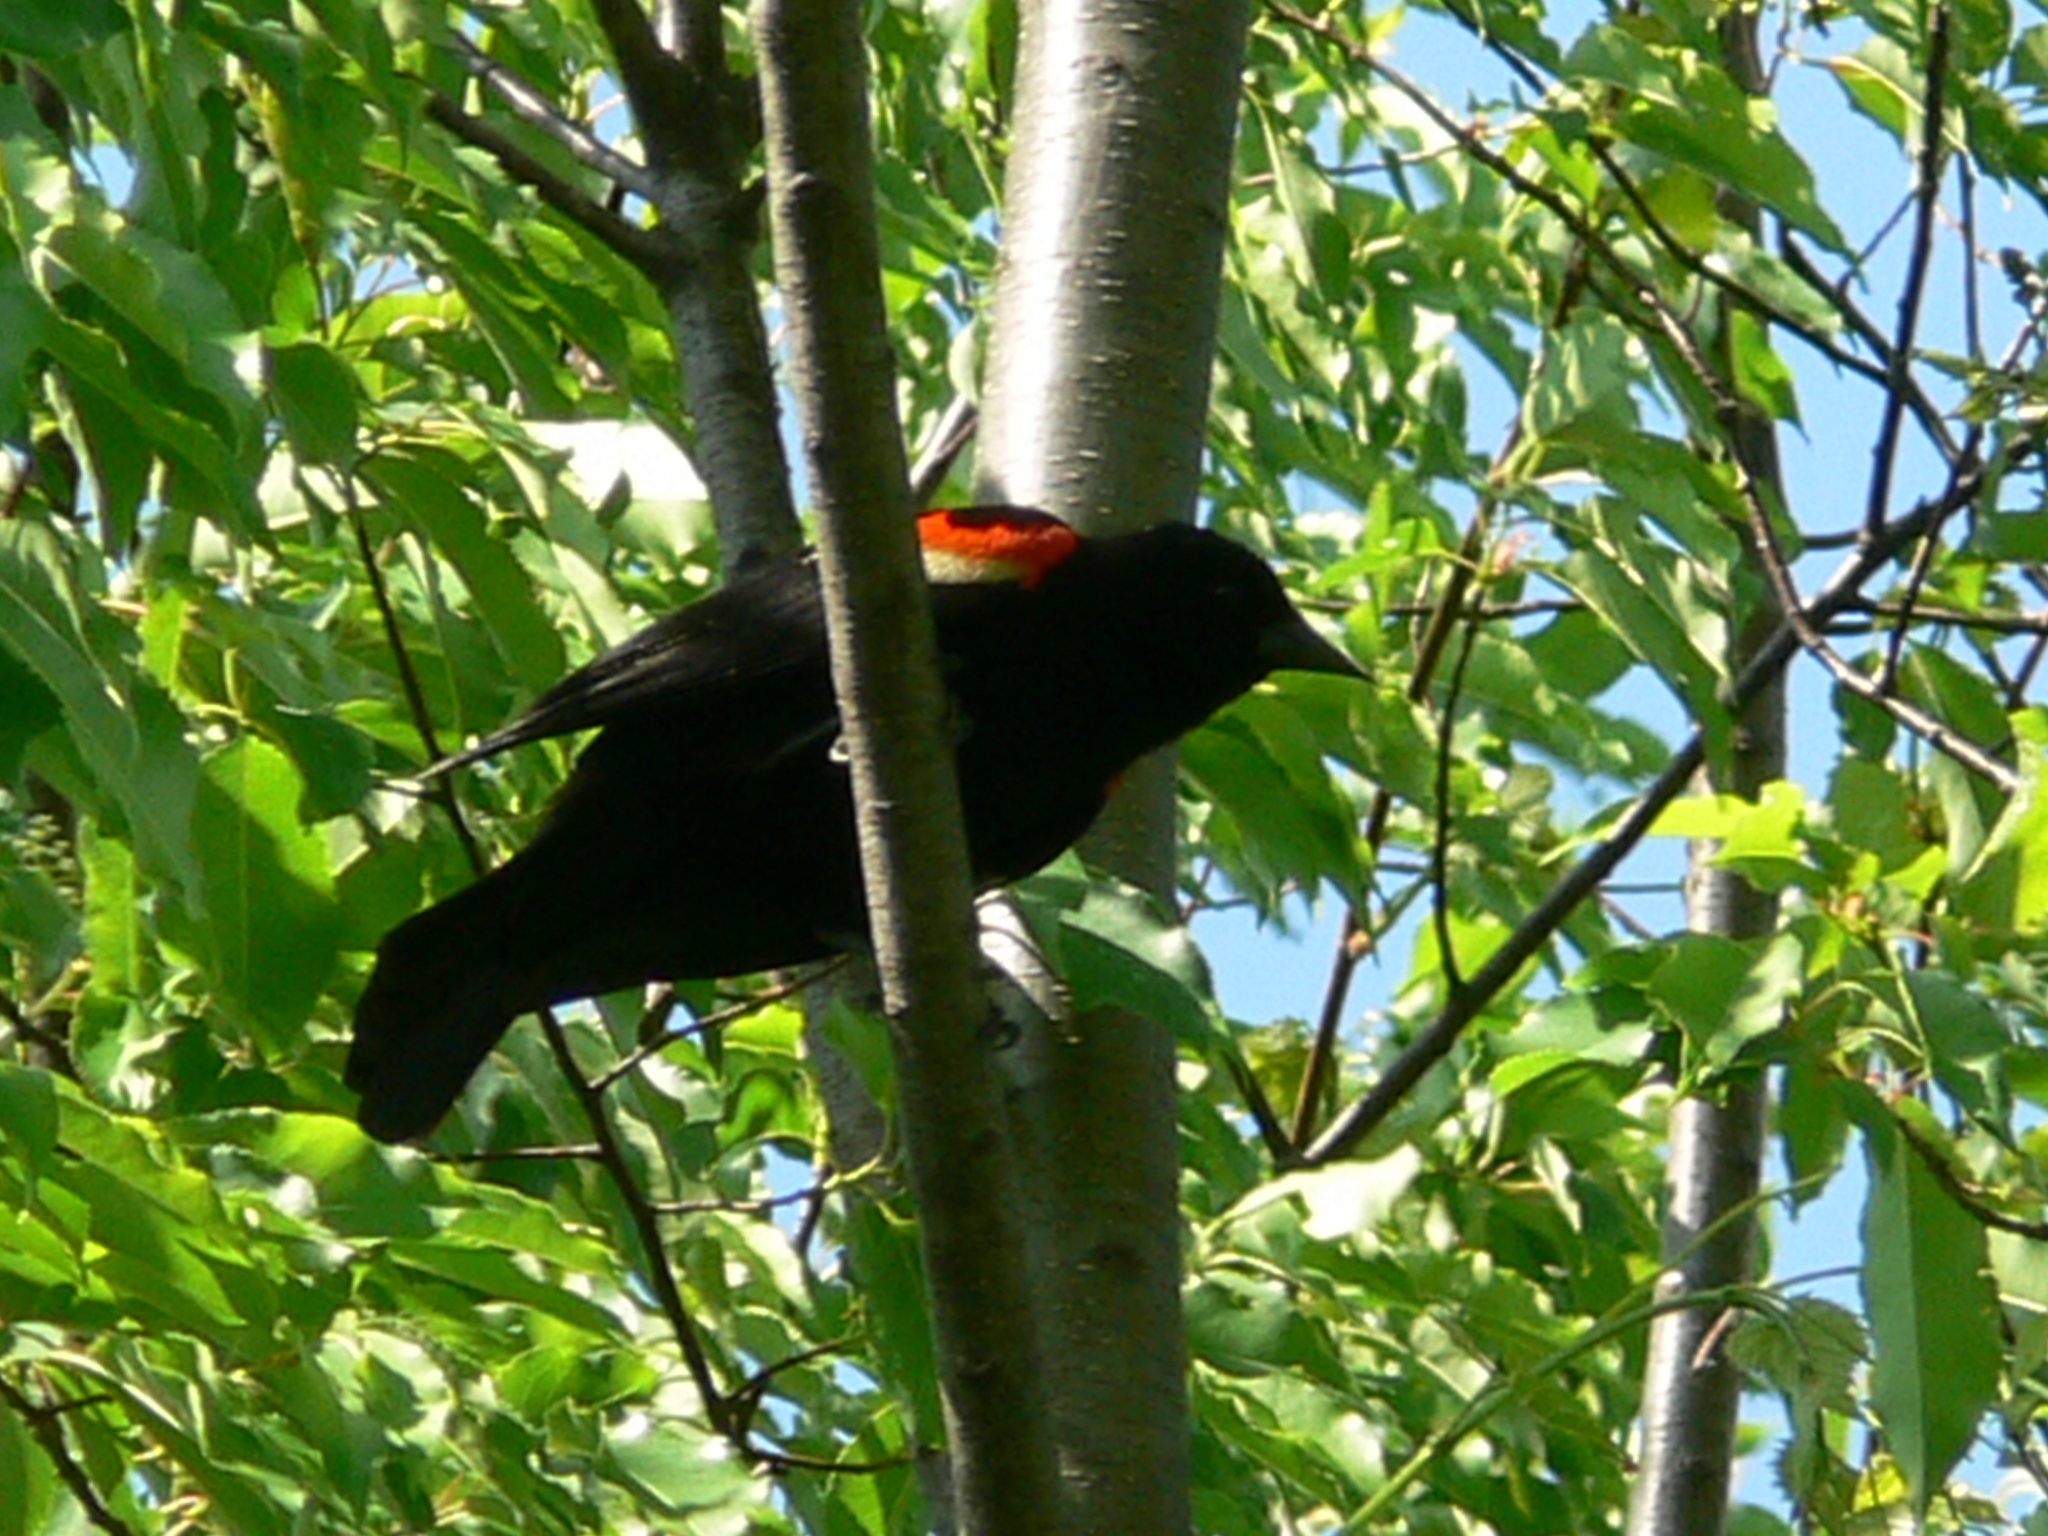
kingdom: Animalia
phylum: Chordata
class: Aves
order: Passeriformes
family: Icteridae
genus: Agelaius
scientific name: Agelaius phoeniceus
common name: Red-winged blackbird
